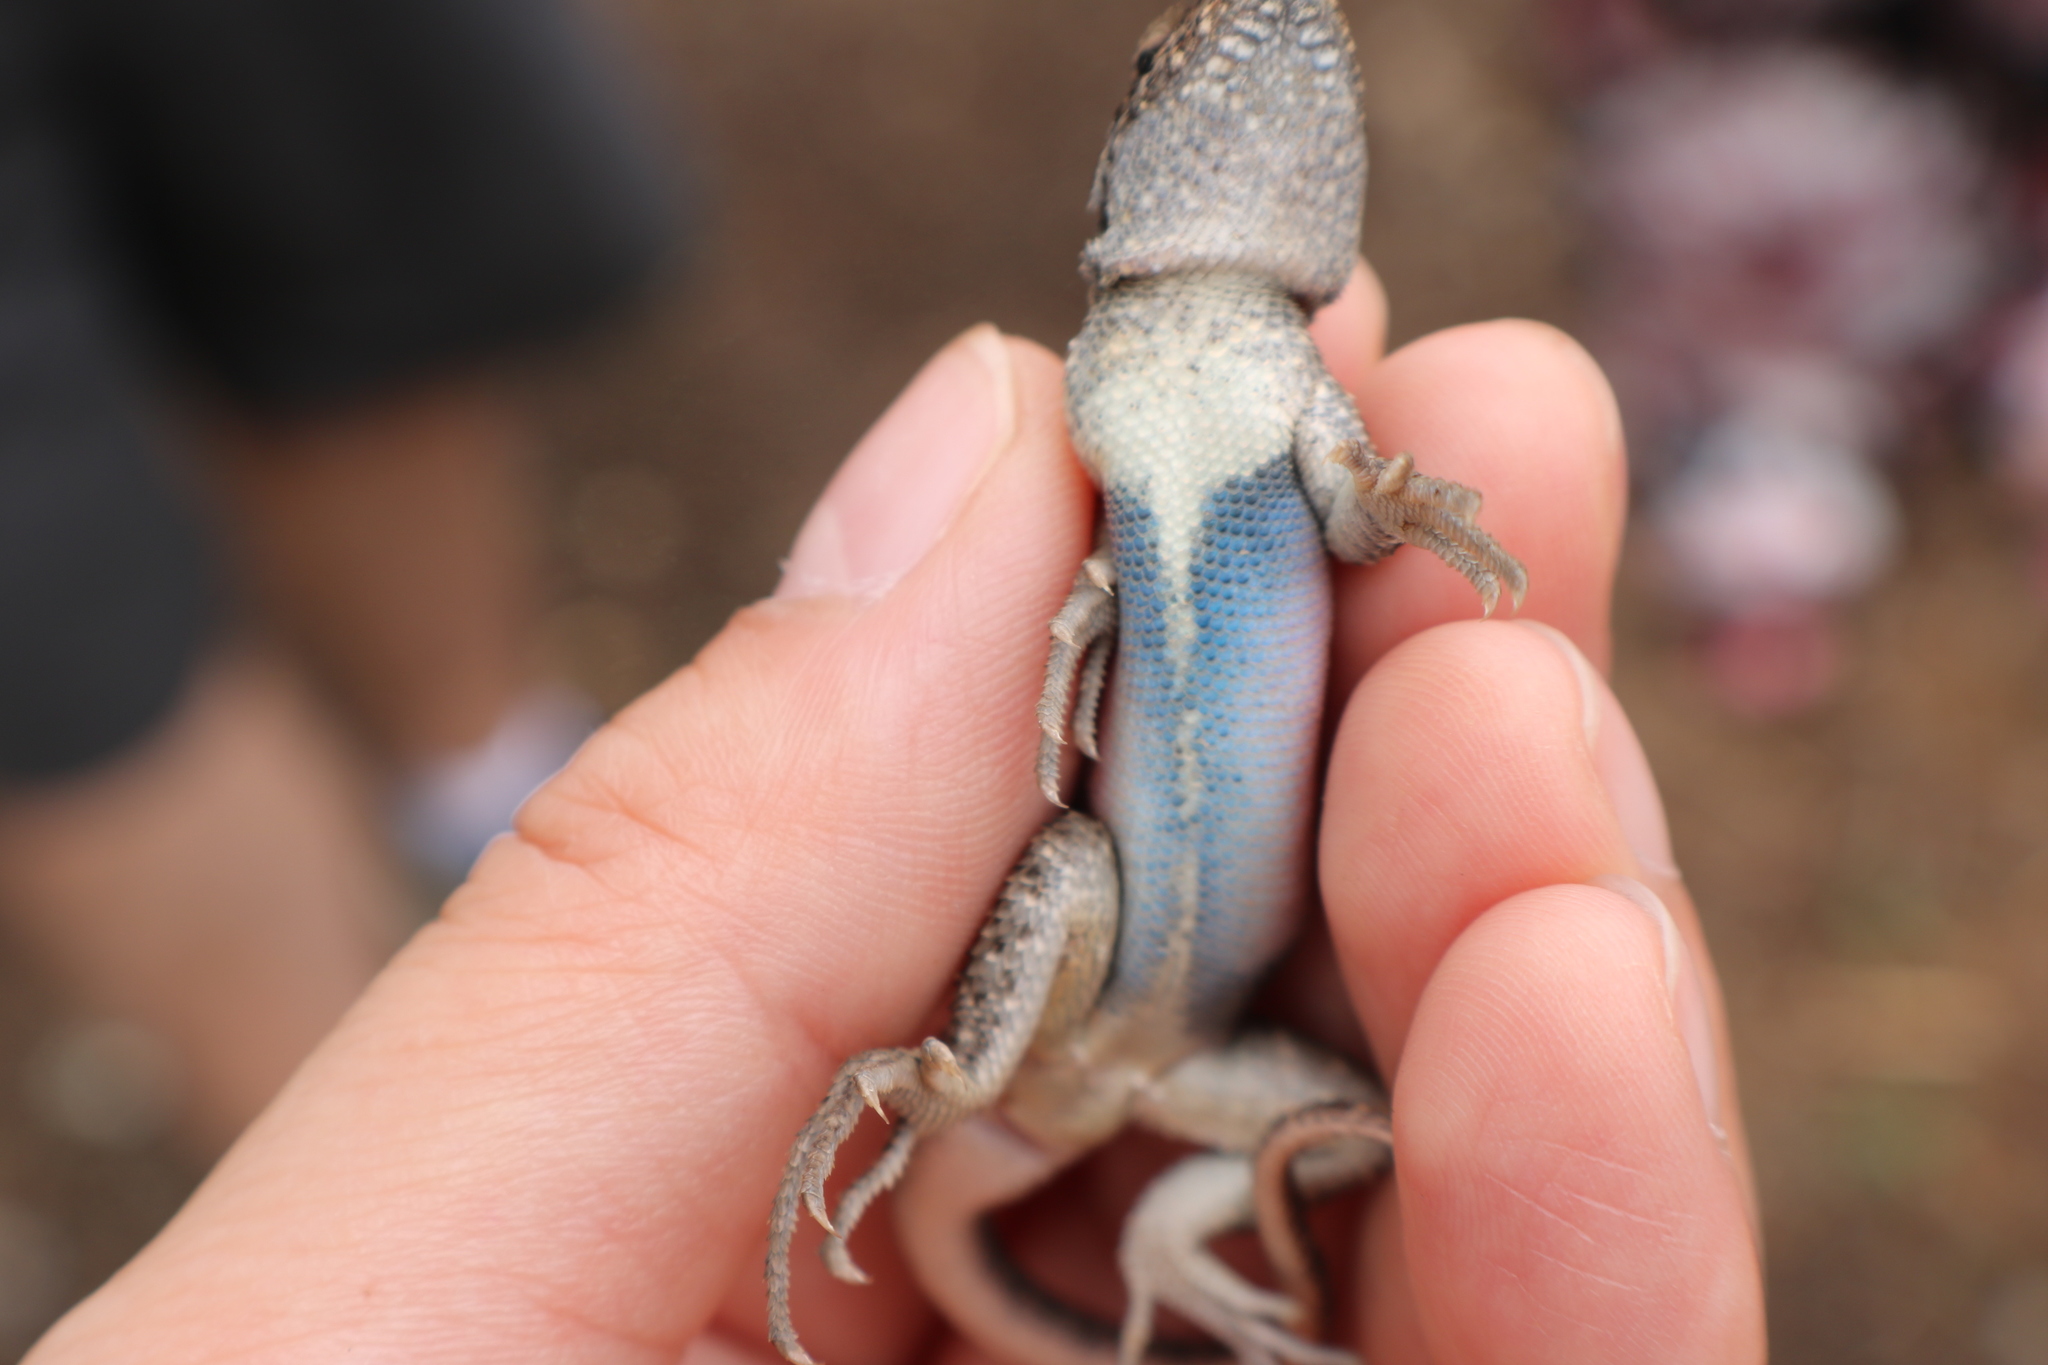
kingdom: Animalia
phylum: Chordata
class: Squamata
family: Phrynosomatidae
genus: Sceloporus
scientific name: Sceloporus variabilis
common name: Rosebelly lizard
